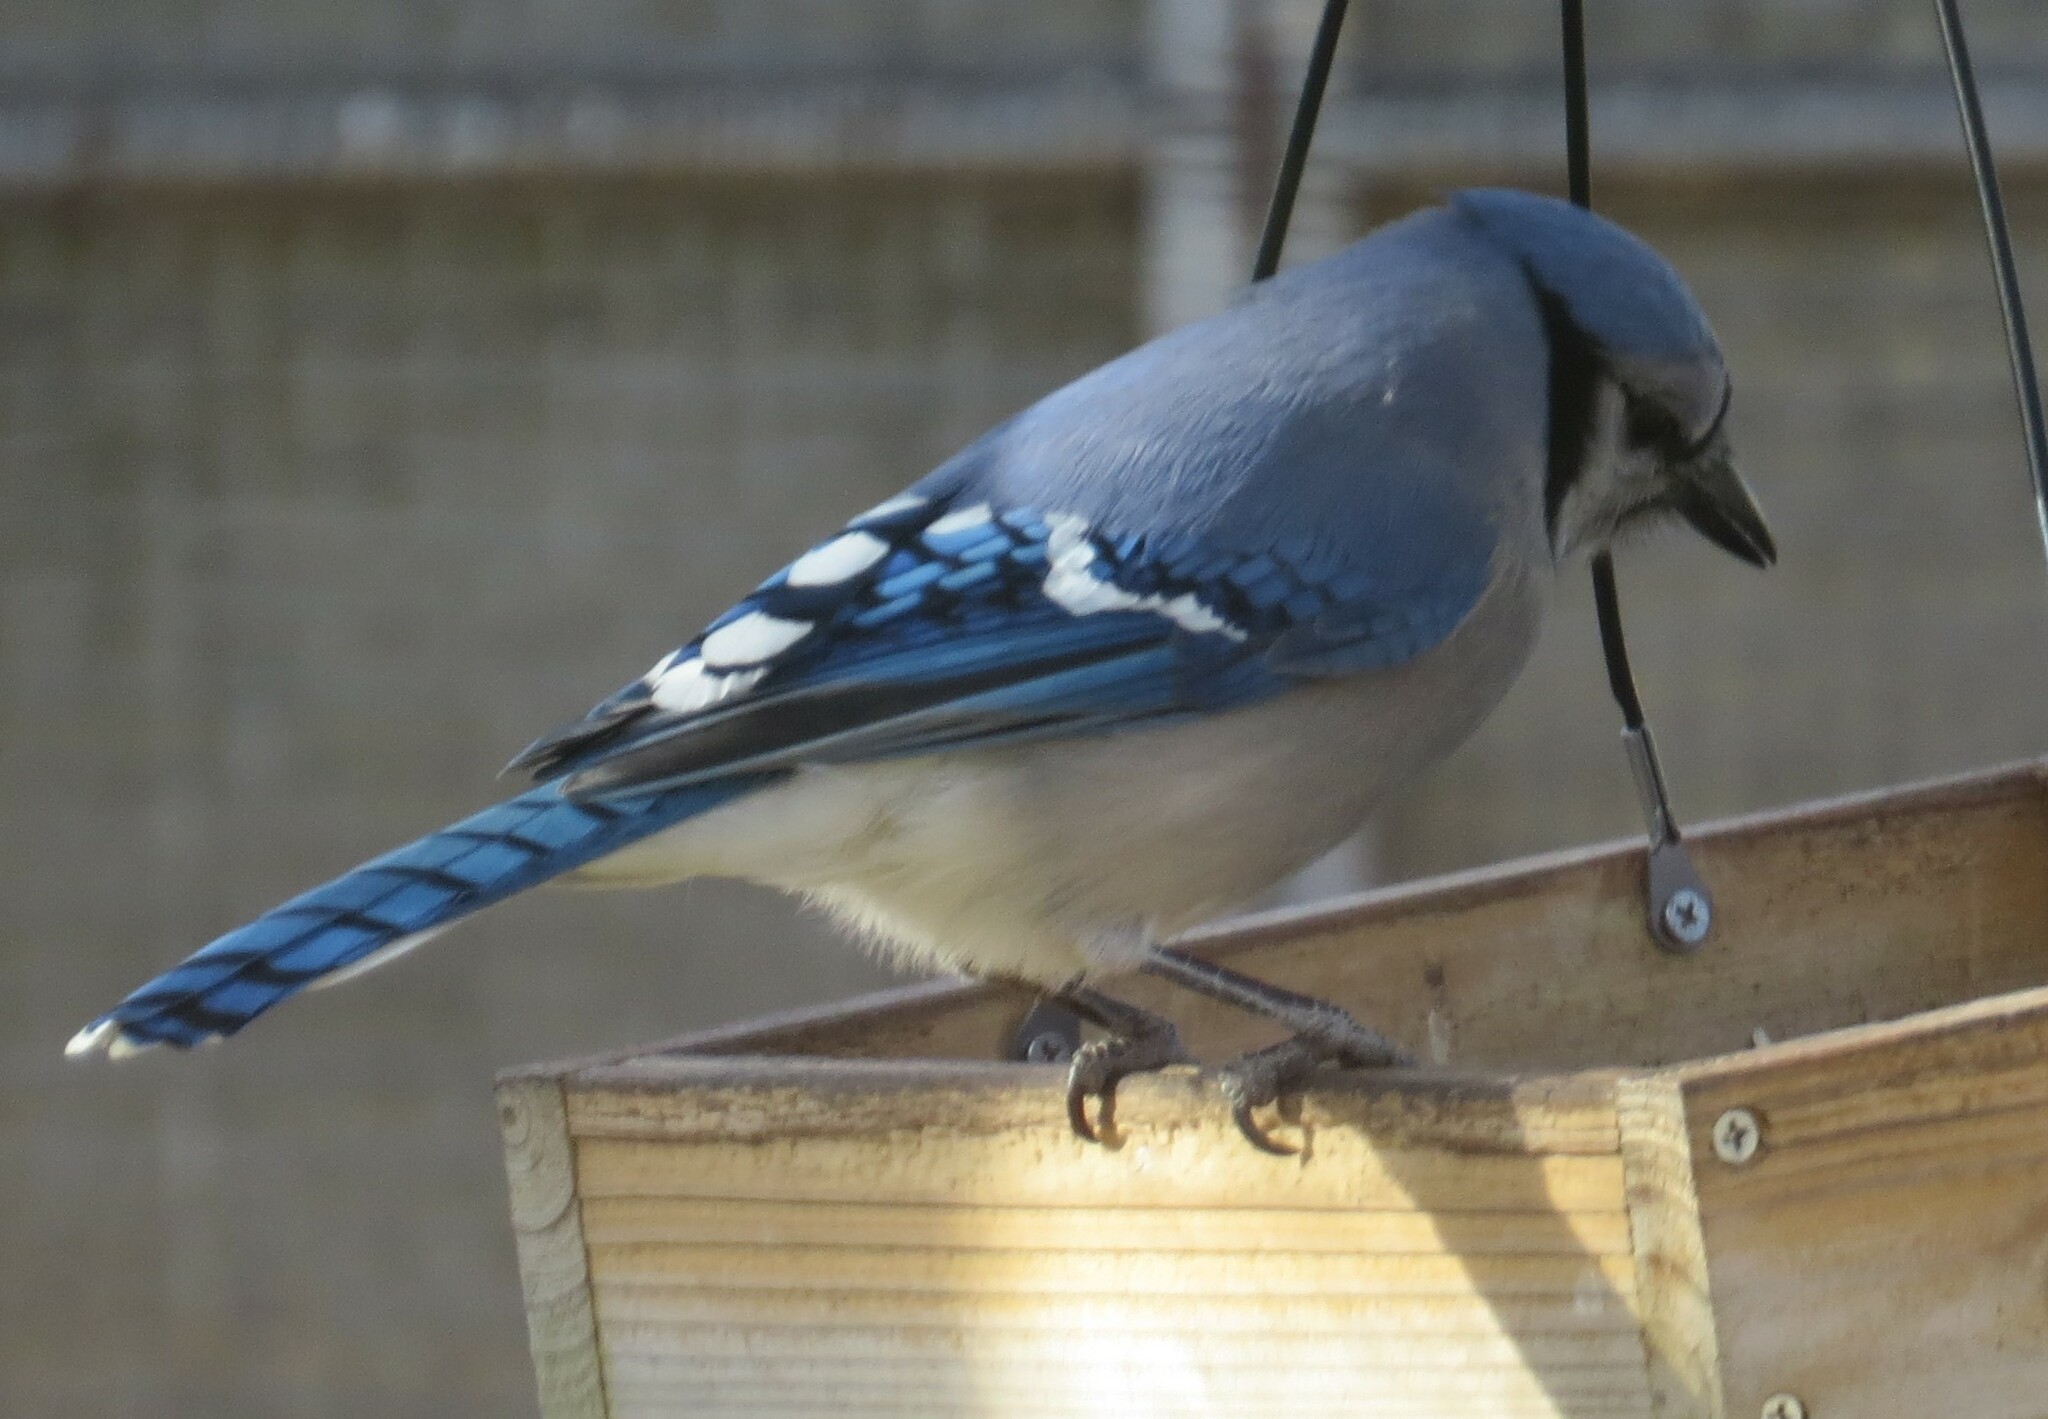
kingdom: Animalia
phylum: Chordata
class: Aves
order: Passeriformes
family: Corvidae
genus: Cyanocitta
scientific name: Cyanocitta cristata
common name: Blue jay
